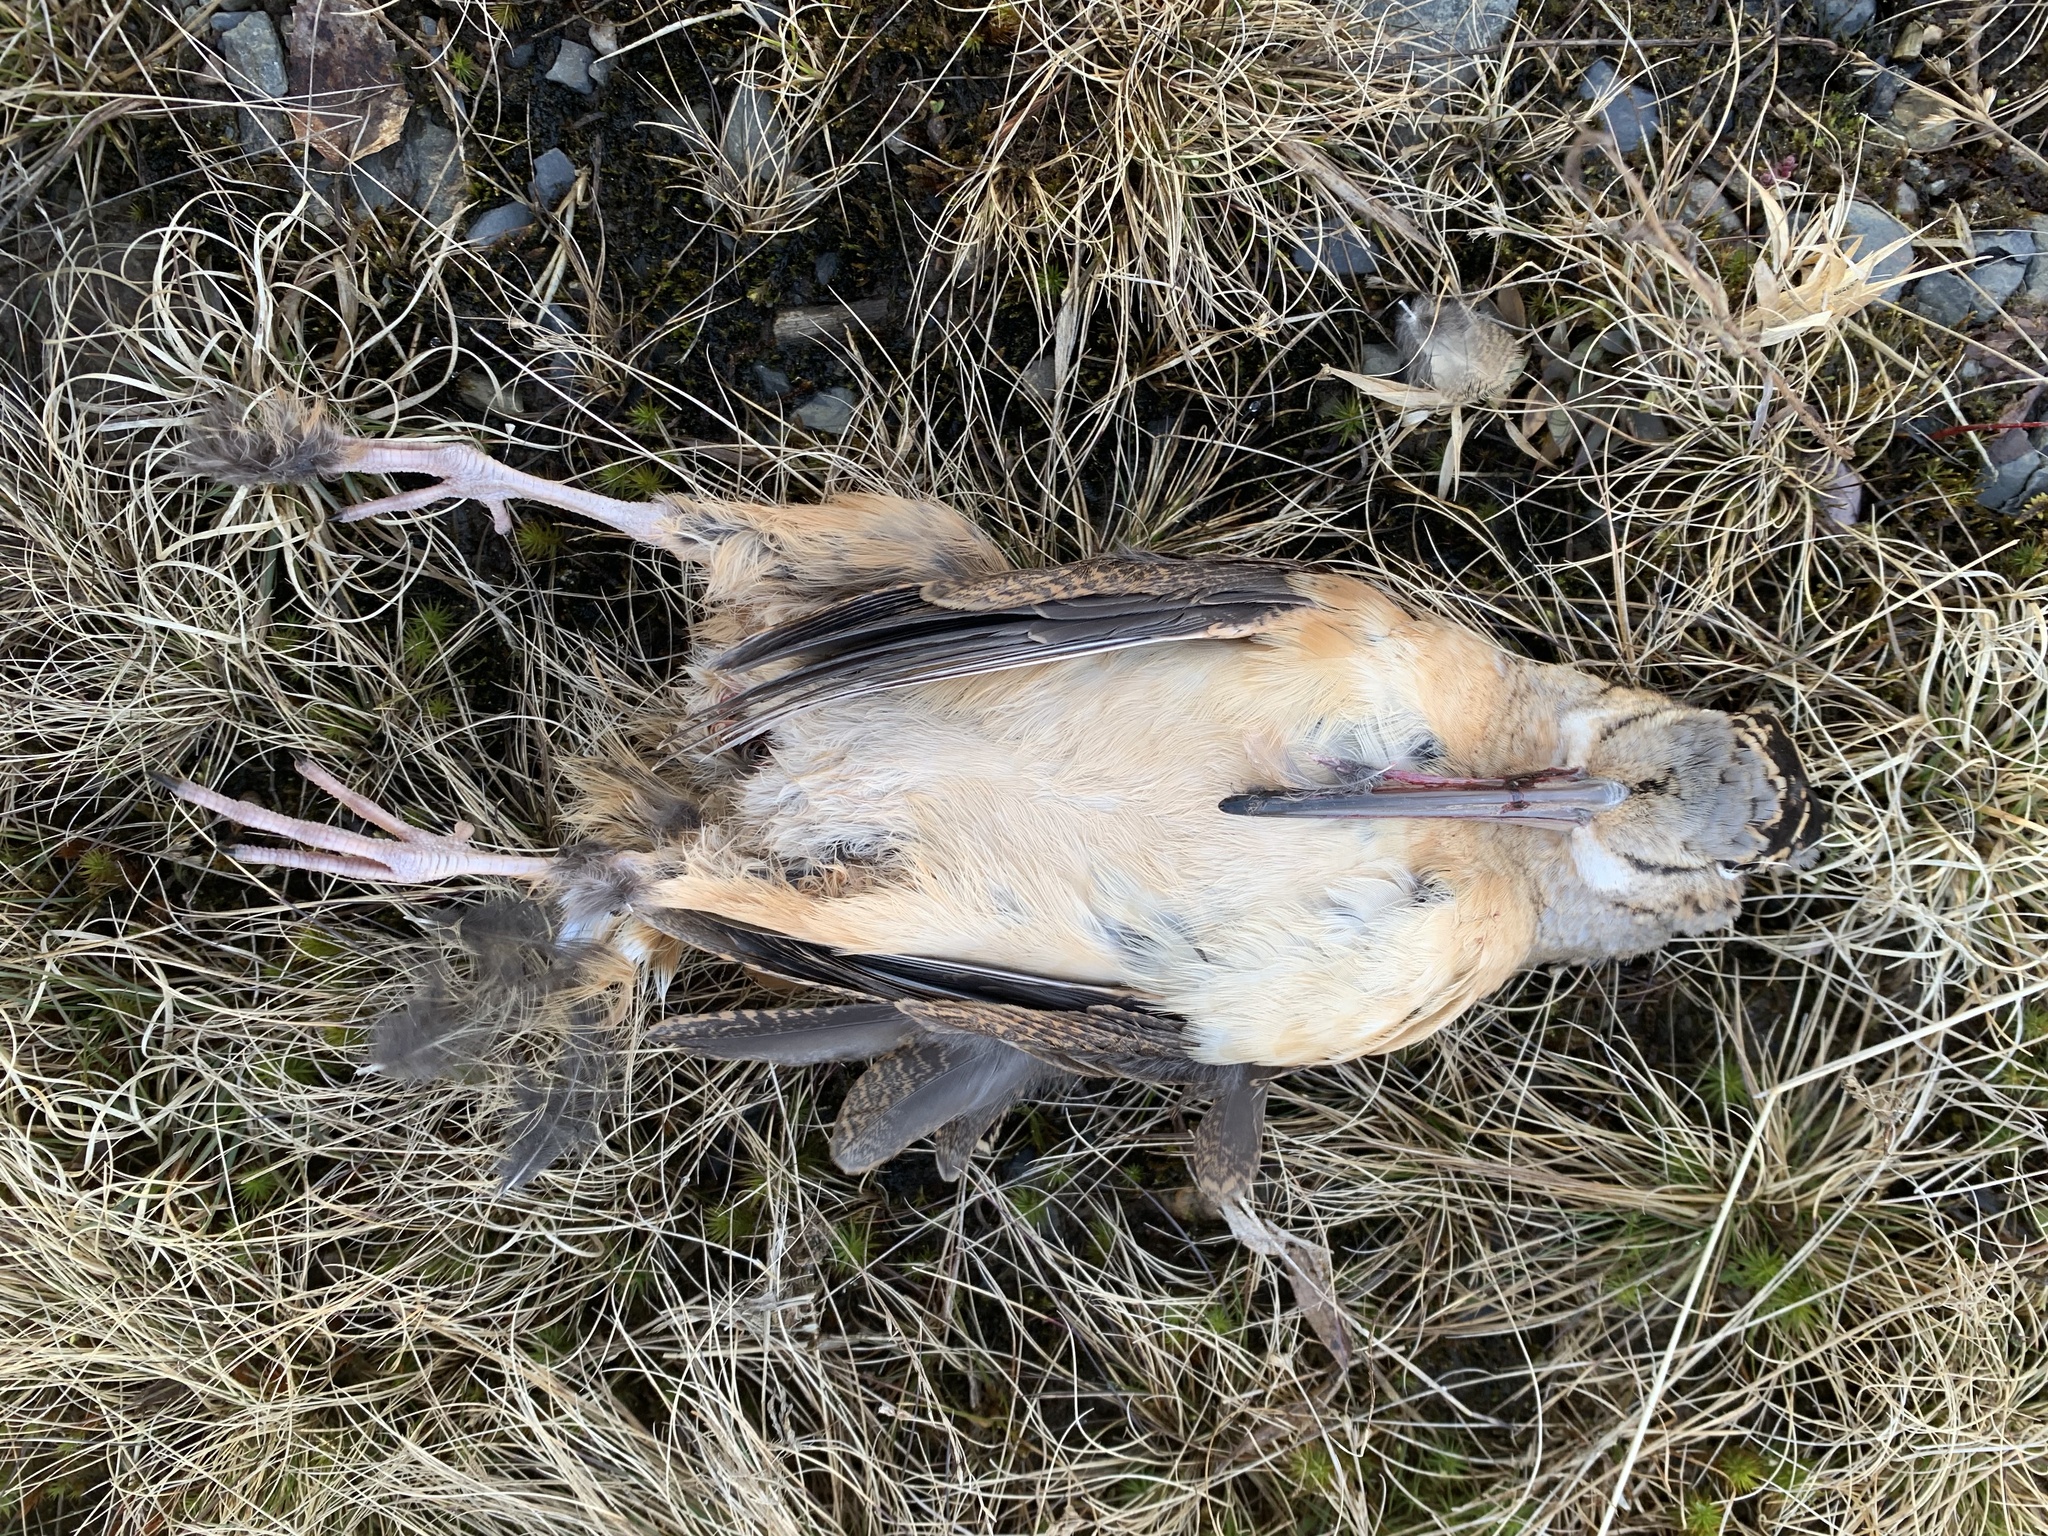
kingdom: Animalia
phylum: Chordata
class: Aves
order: Charadriiformes
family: Scolopacidae
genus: Scolopax
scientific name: Scolopax minor
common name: American woodcock
